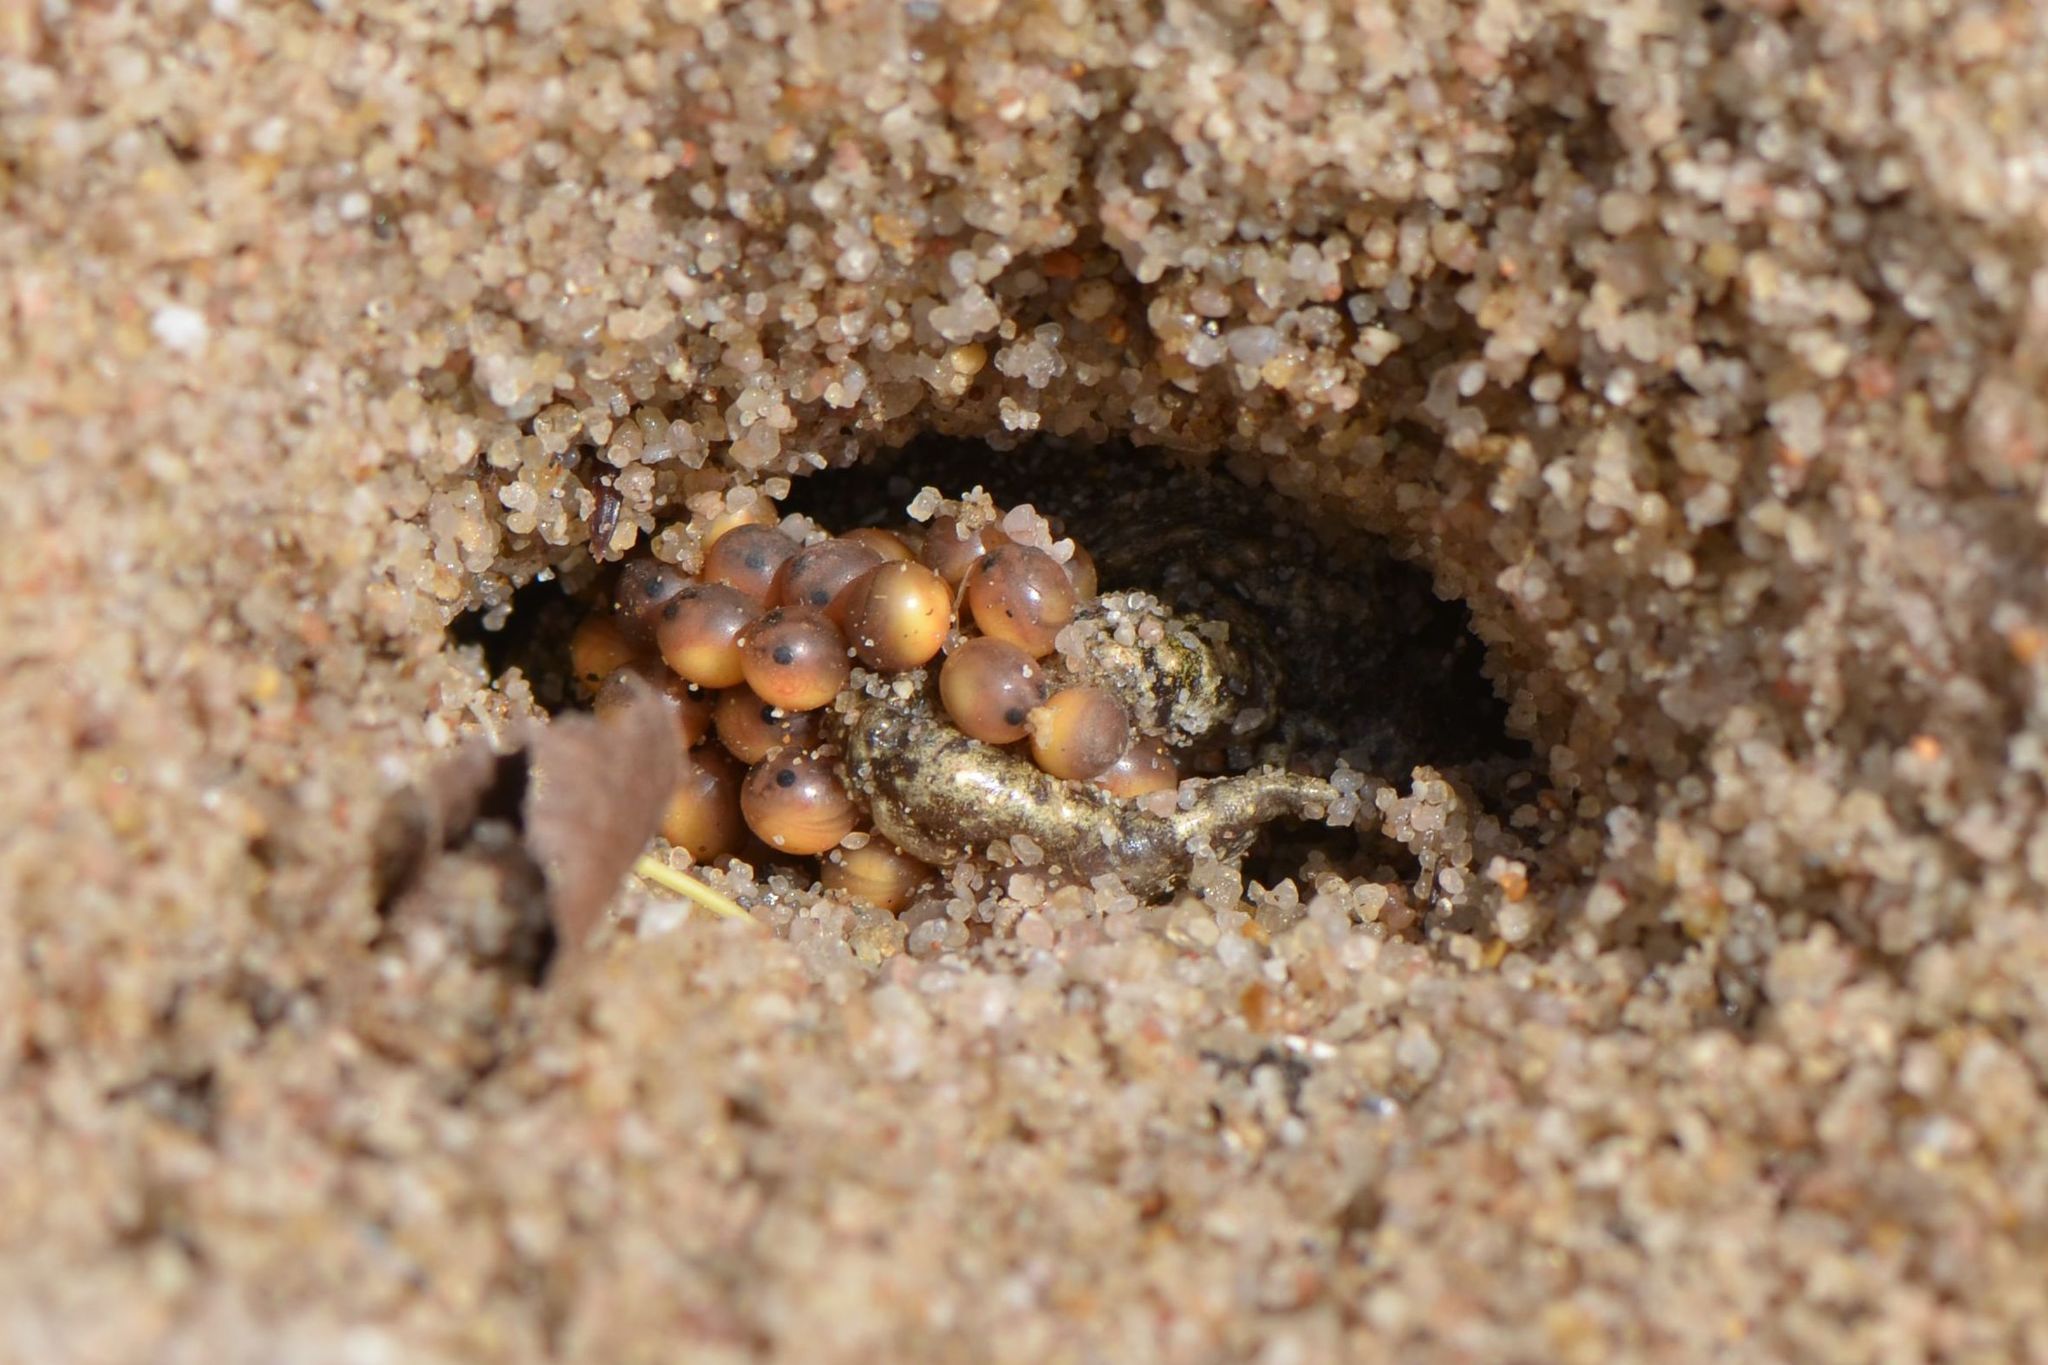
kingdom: Animalia
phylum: Chordata
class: Amphibia
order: Anura
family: Alytidae
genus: Alytes
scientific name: Alytes obstetricans
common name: Midwife toad
